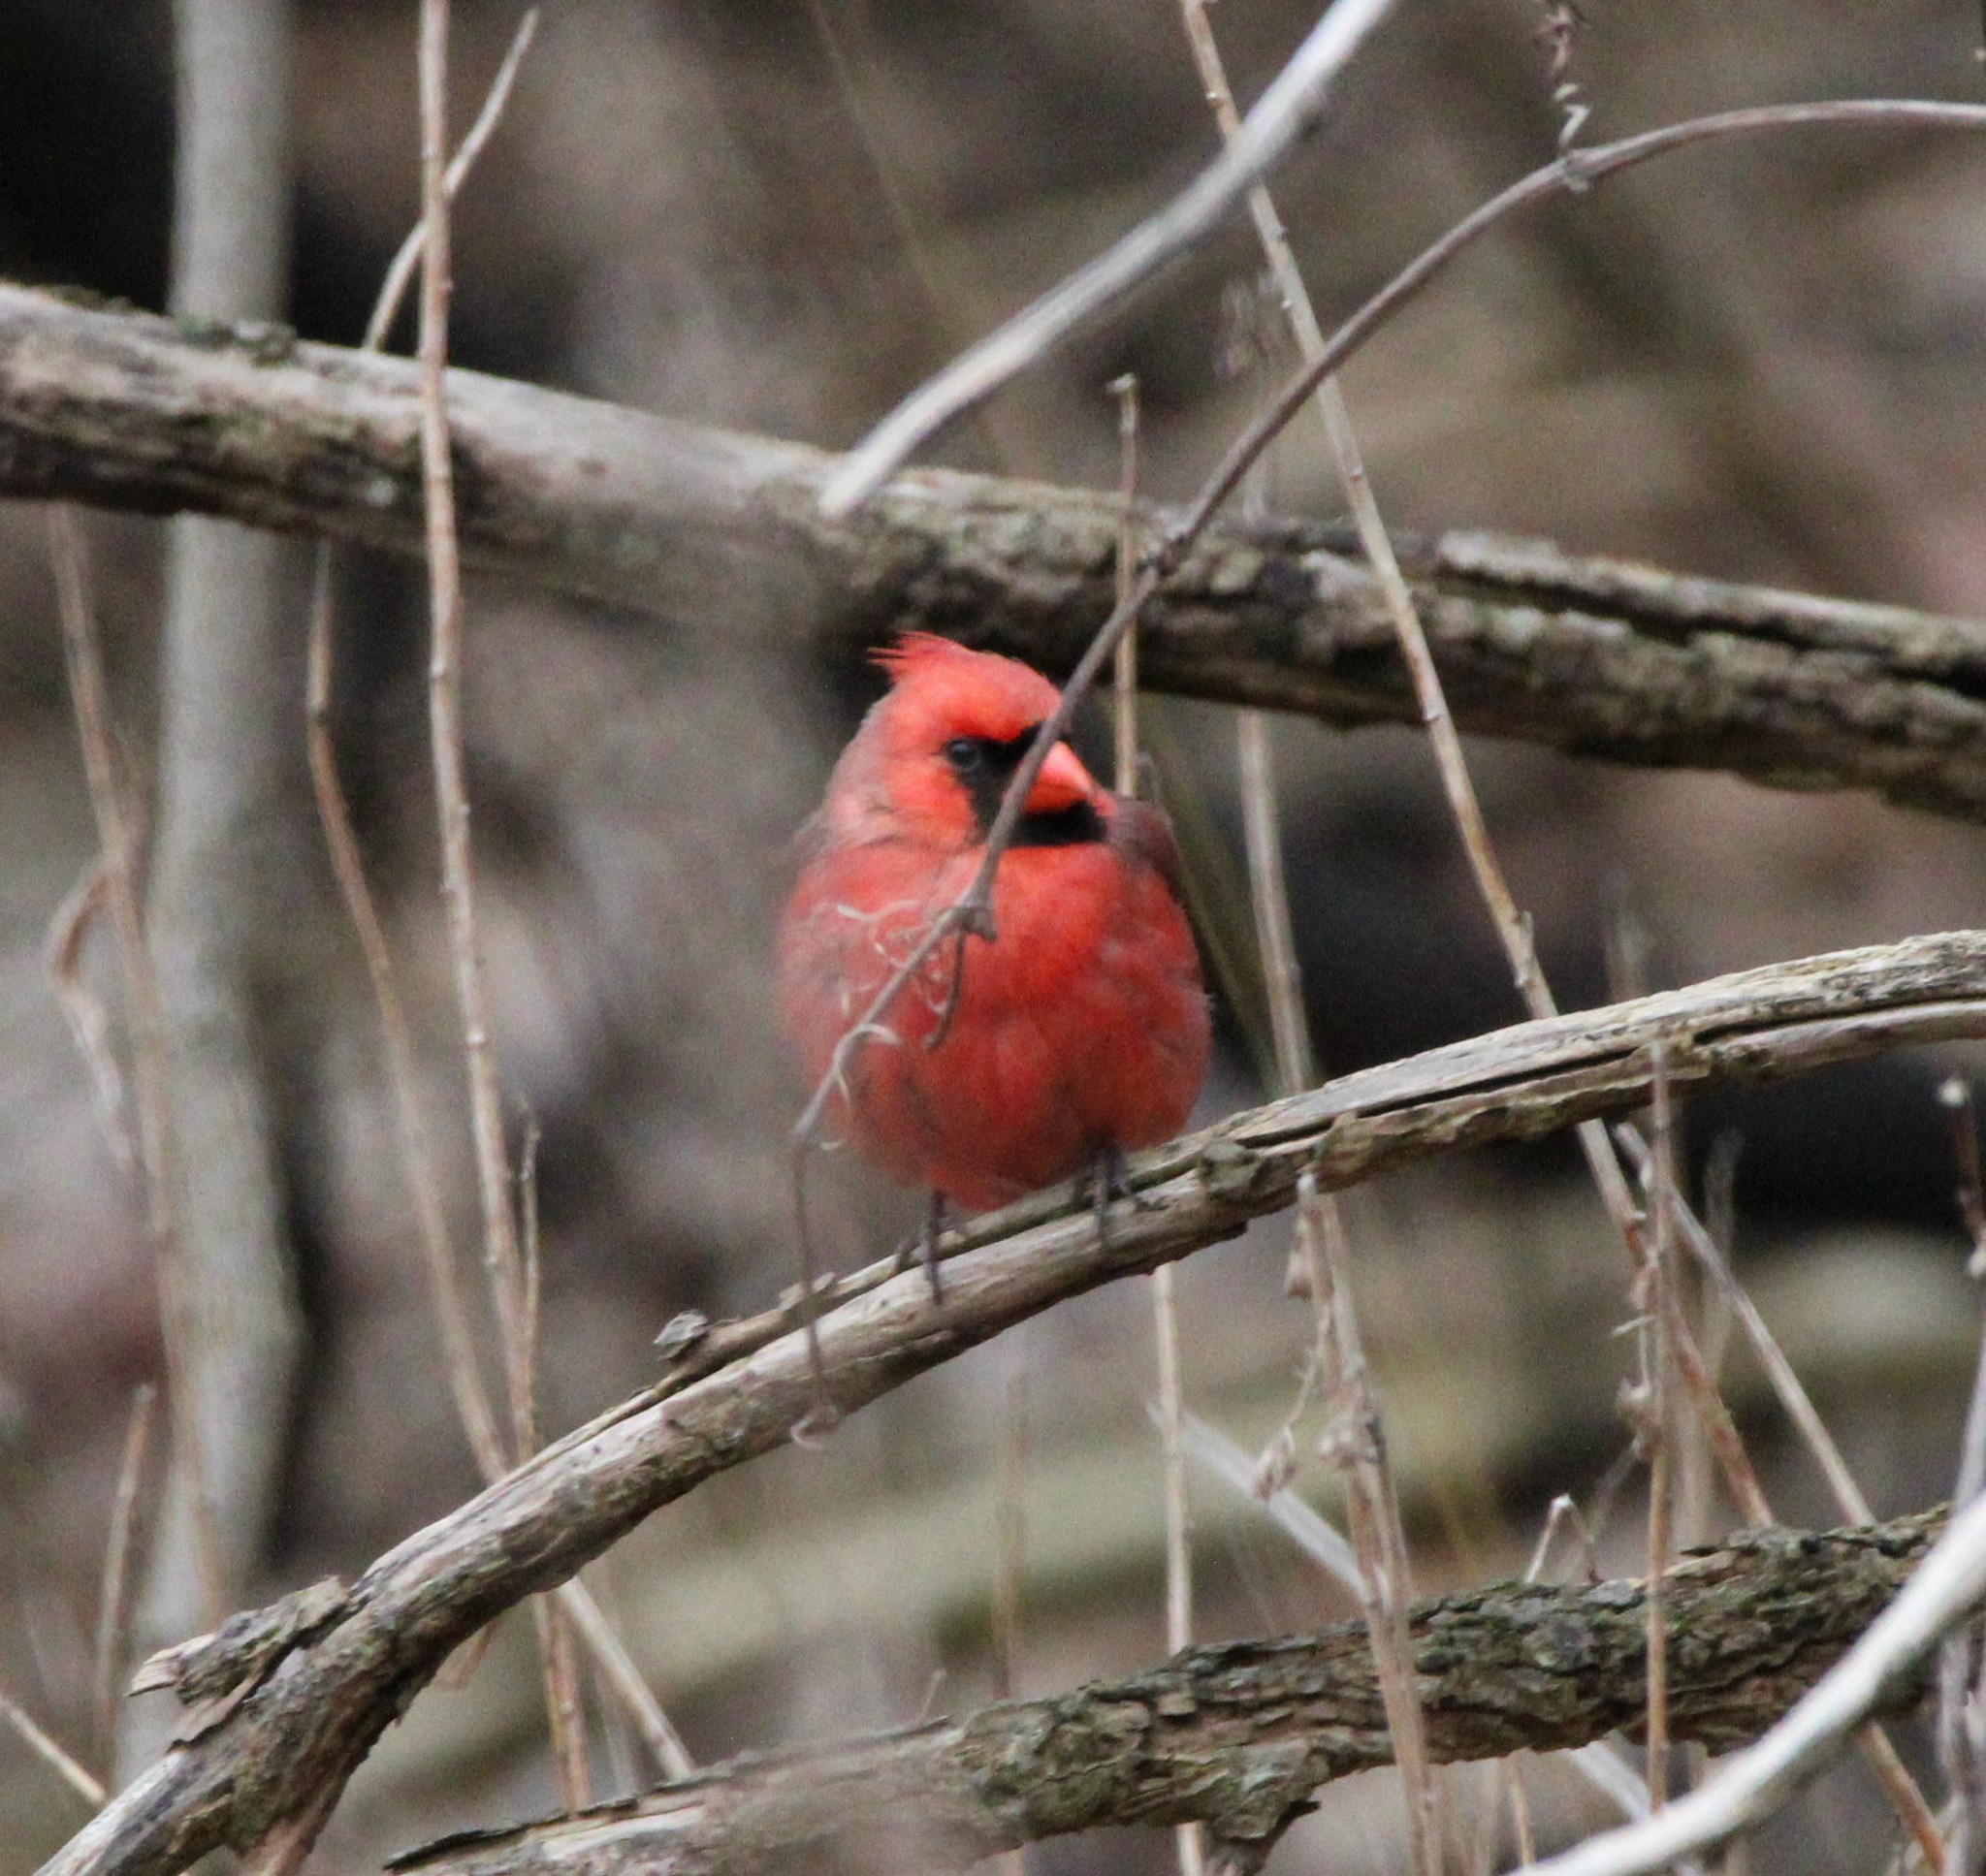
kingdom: Animalia
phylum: Chordata
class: Aves
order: Passeriformes
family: Cardinalidae
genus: Cardinalis
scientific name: Cardinalis cardinalis
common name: Northern cardinal
